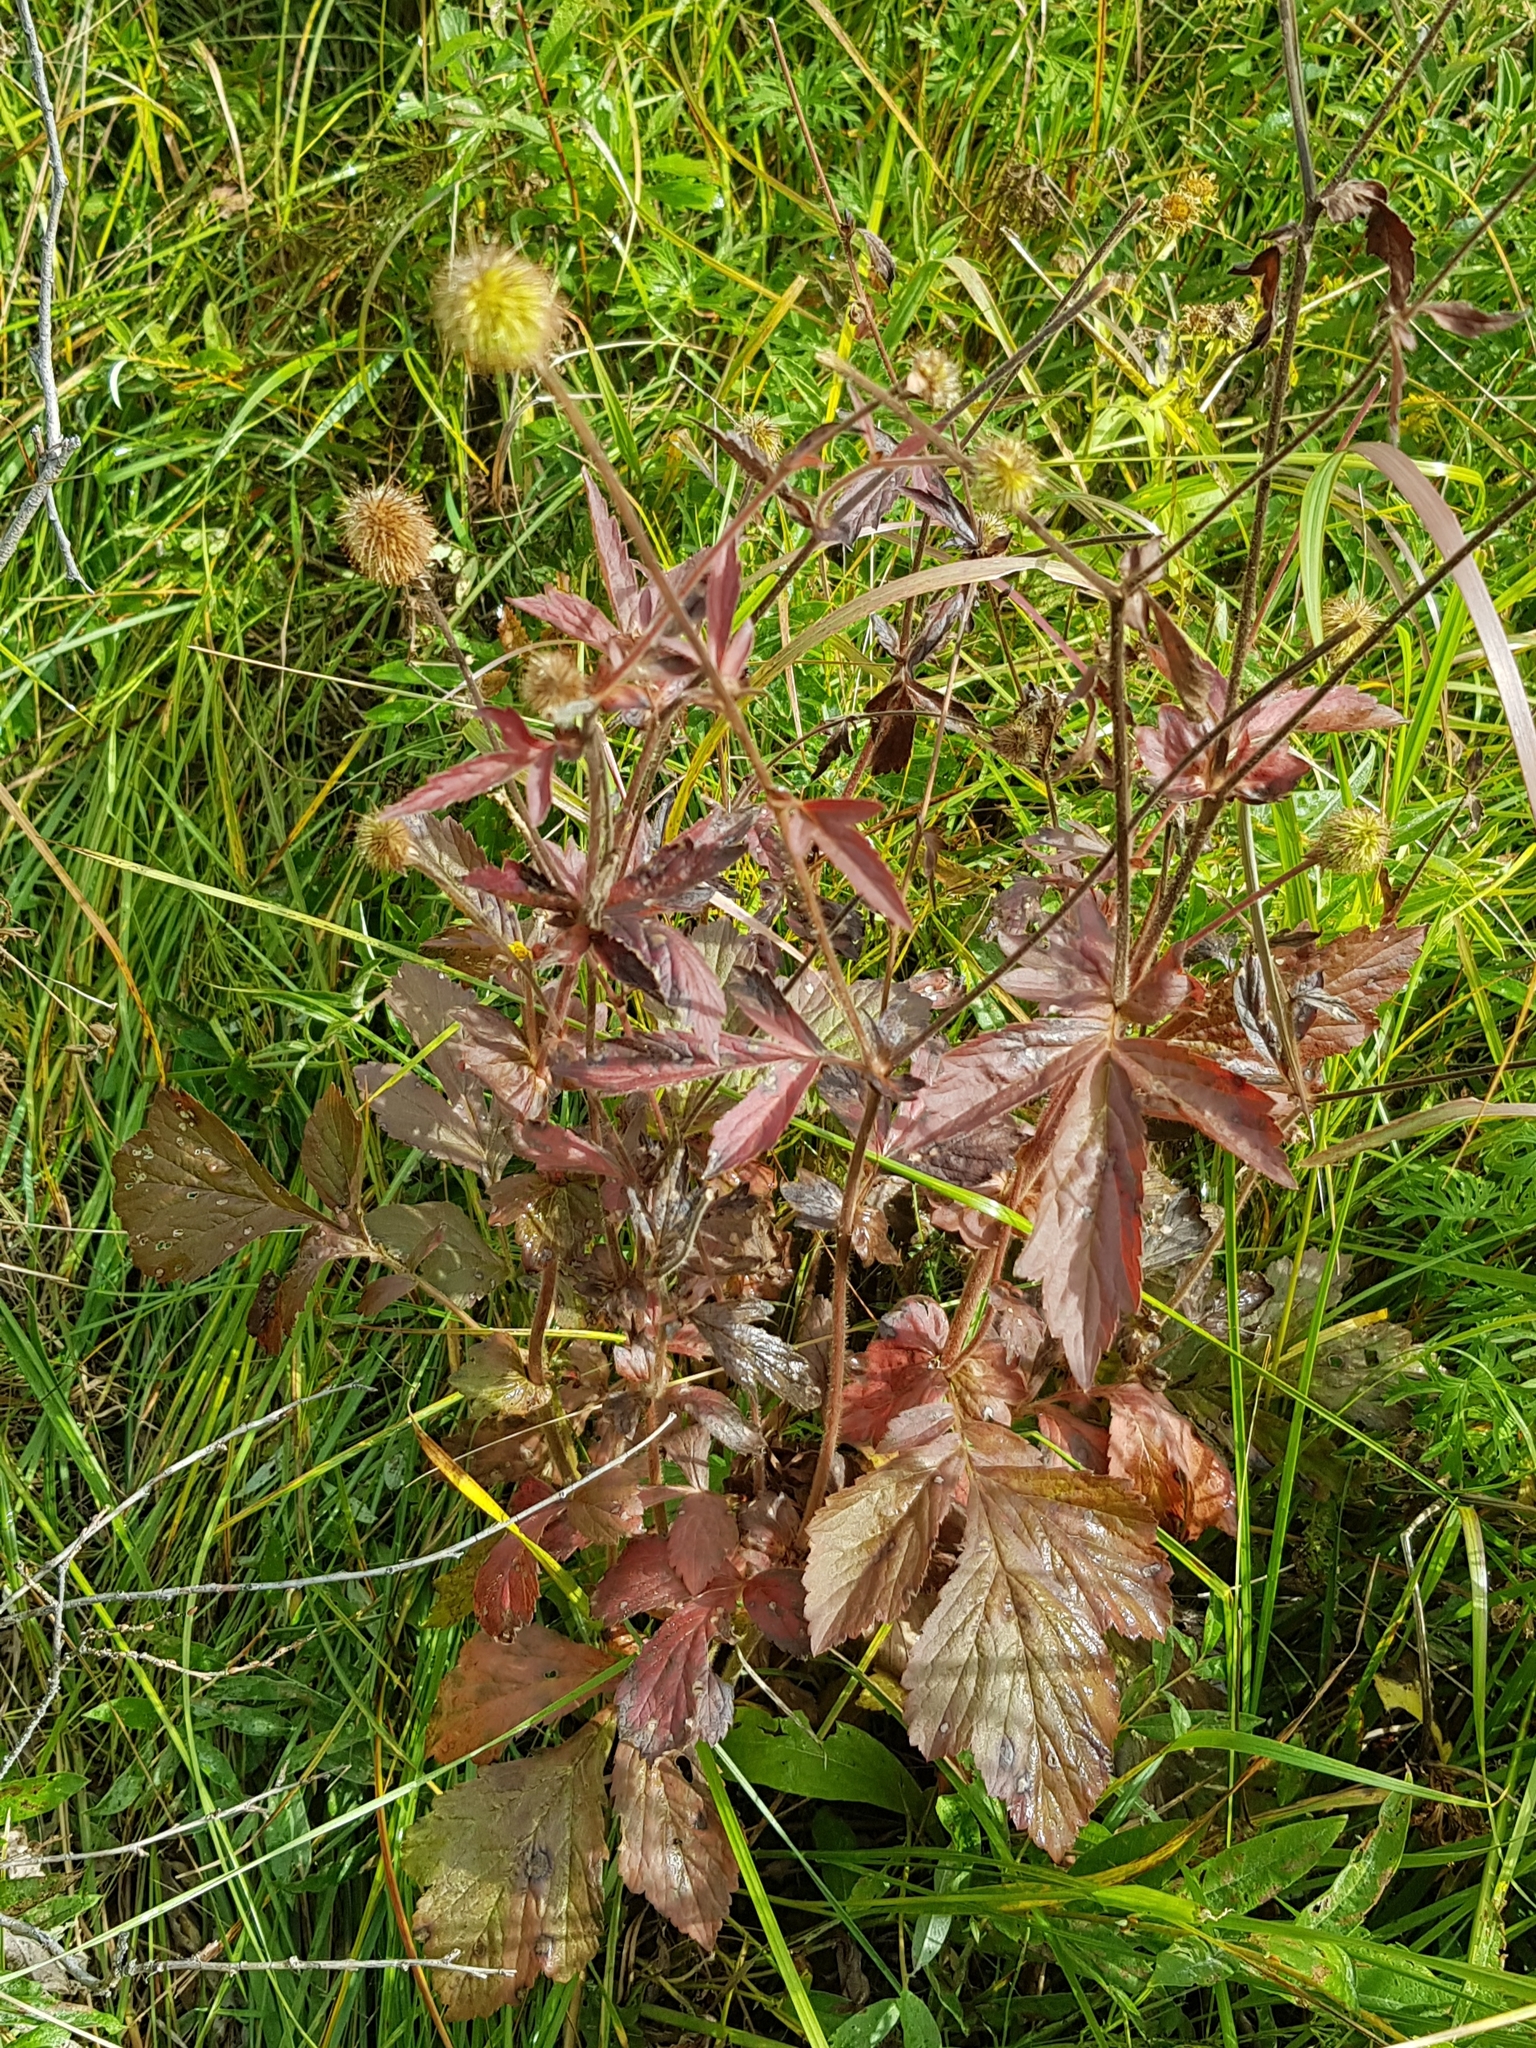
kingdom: Plantae
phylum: Tracheophyta
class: Magnoliopsida
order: Rosales
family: Rosaceae
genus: Geum
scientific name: Geum aleppicum
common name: Yellow avens
